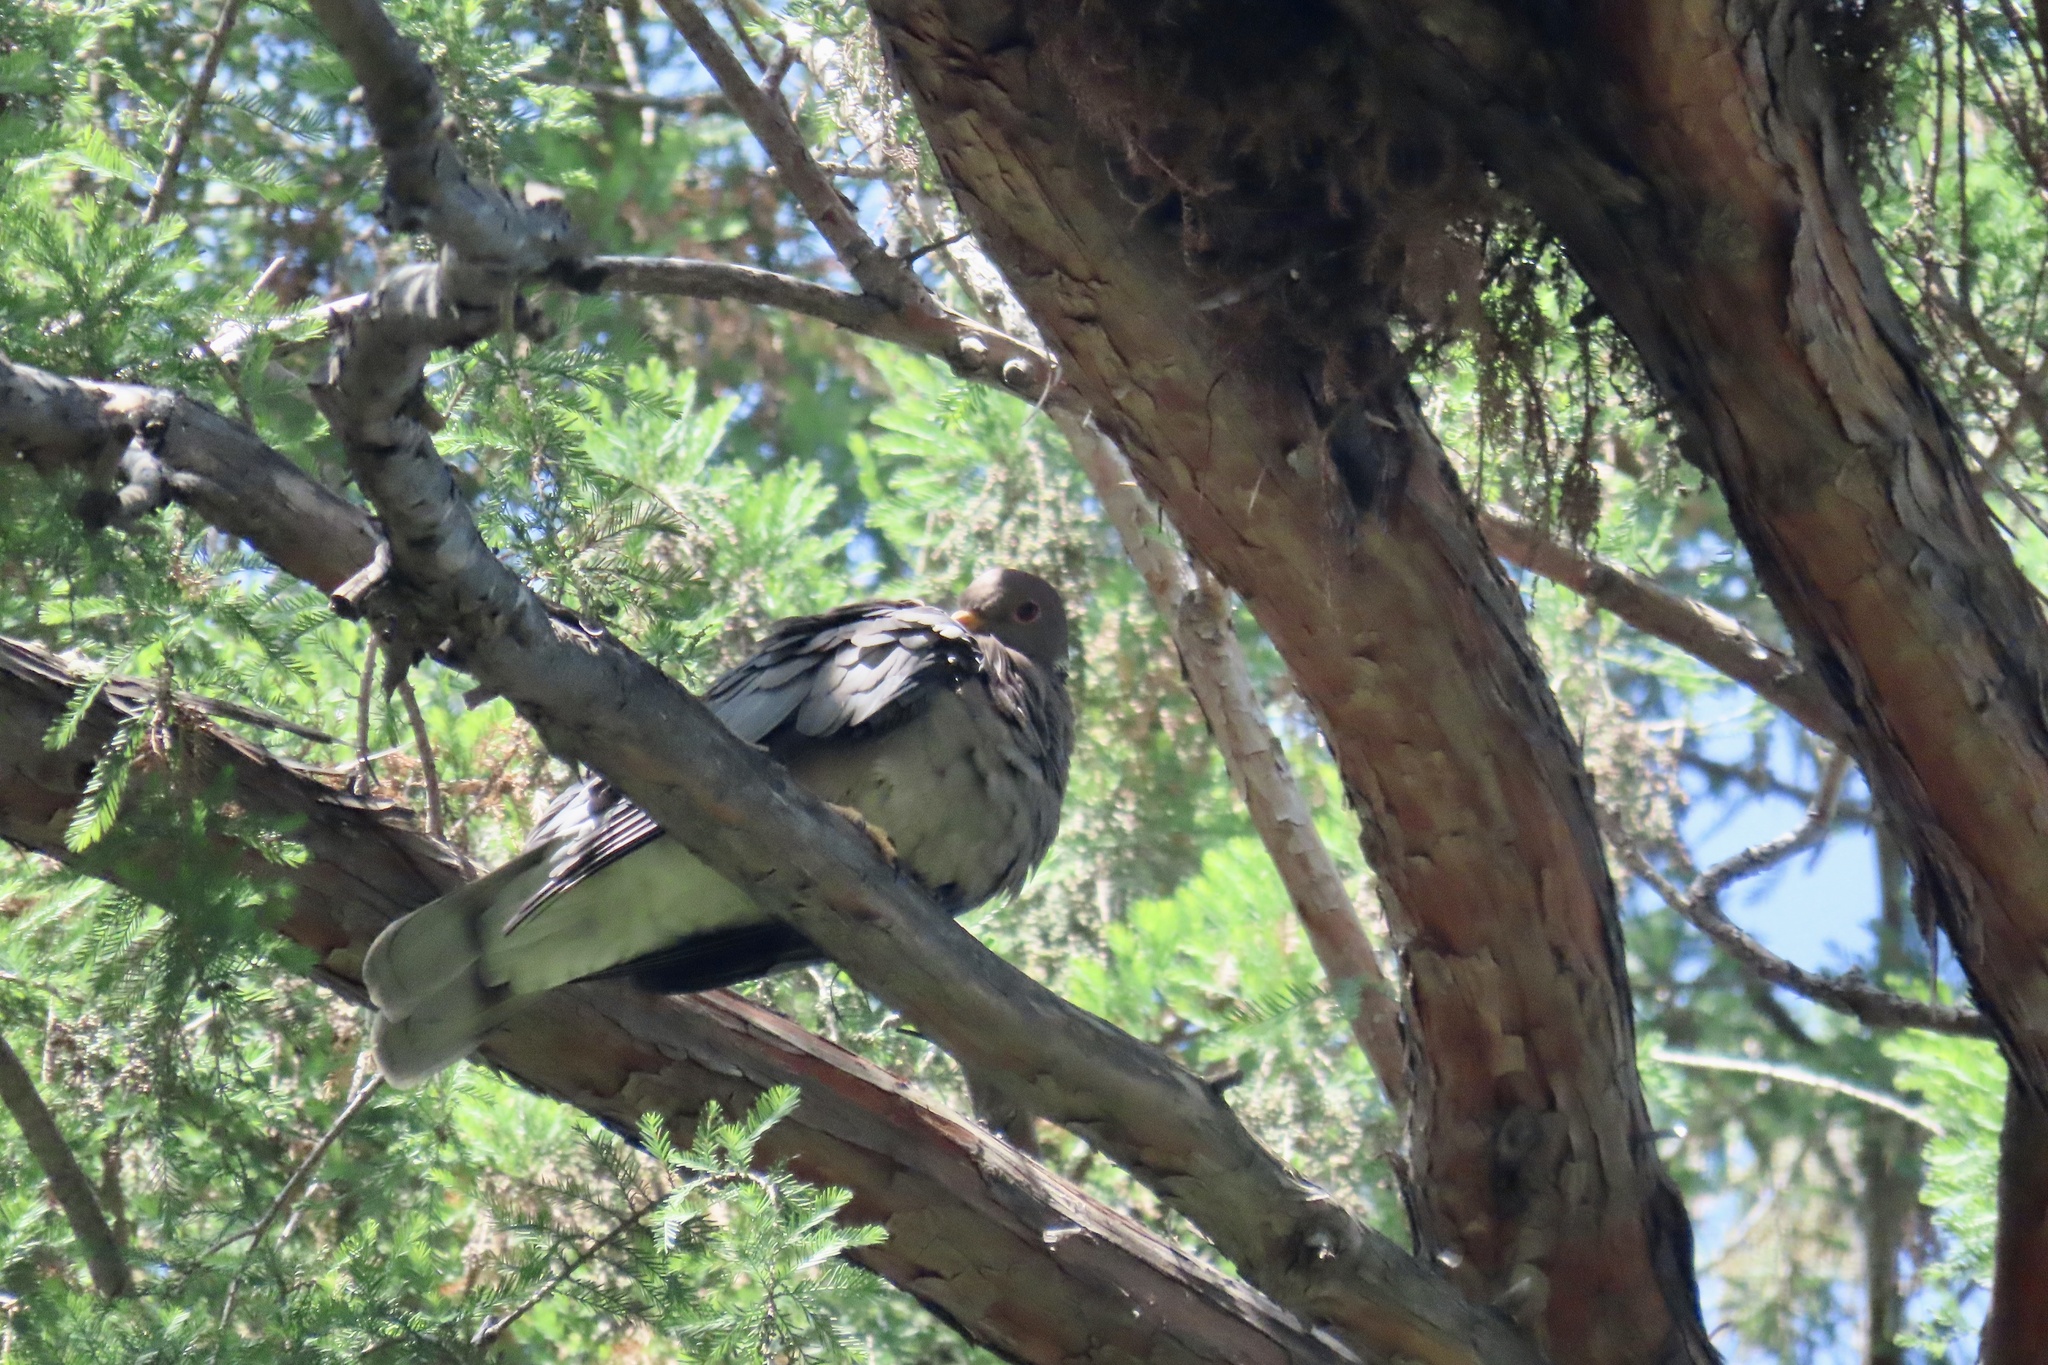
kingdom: Animalia
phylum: Chordata
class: Aves
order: Columbiformes
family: Columbidae
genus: Patagioenas
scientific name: Patagioenas fasciata
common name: Band-tailed pigeon
